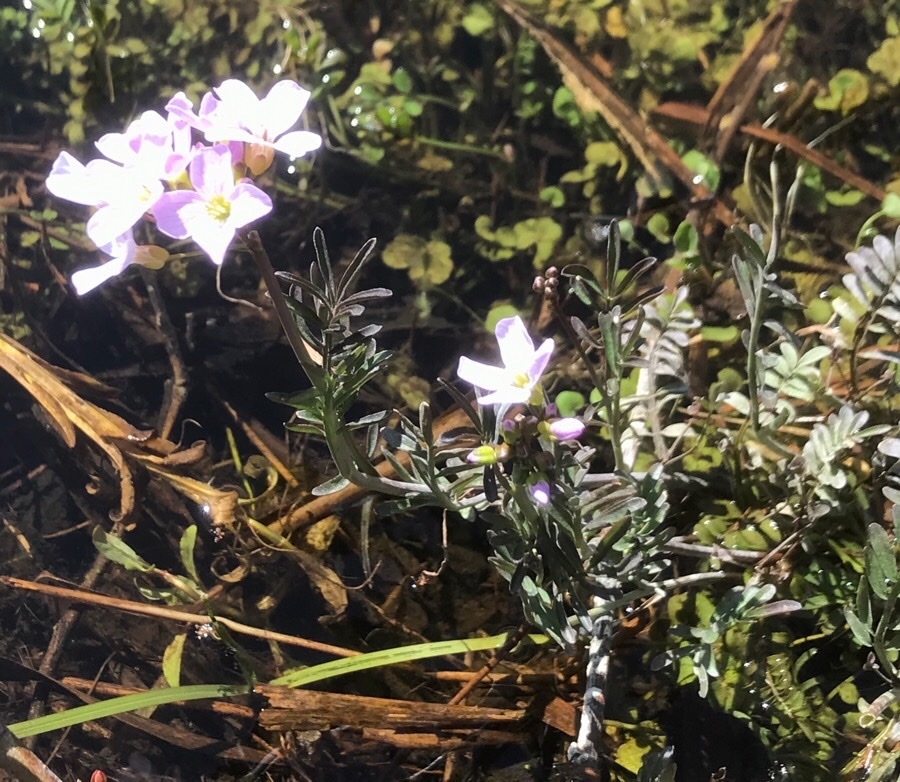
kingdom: Plantae
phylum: Tracheophyta
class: Magnoliopsida
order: Brassicales
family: Brassicaceae
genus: Cardamine
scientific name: Cardamine pratensis
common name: Cuckoo flower
